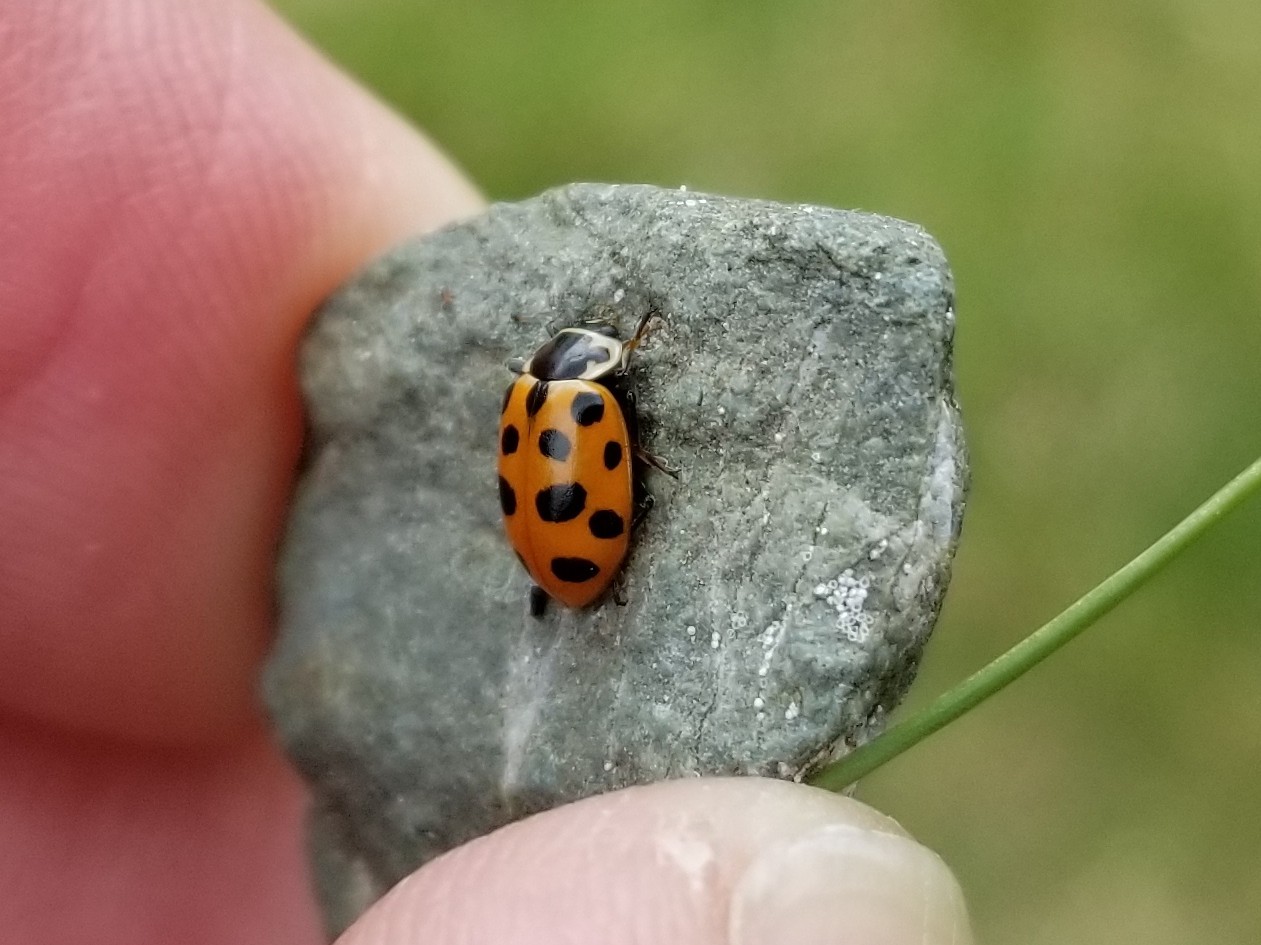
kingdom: Animalia
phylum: Arthropoda
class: Insecta
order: Coleoptera
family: Coccinellidae
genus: Hippodamia
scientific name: Hippodamia tredecimpunctata
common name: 13-spot ladybird
